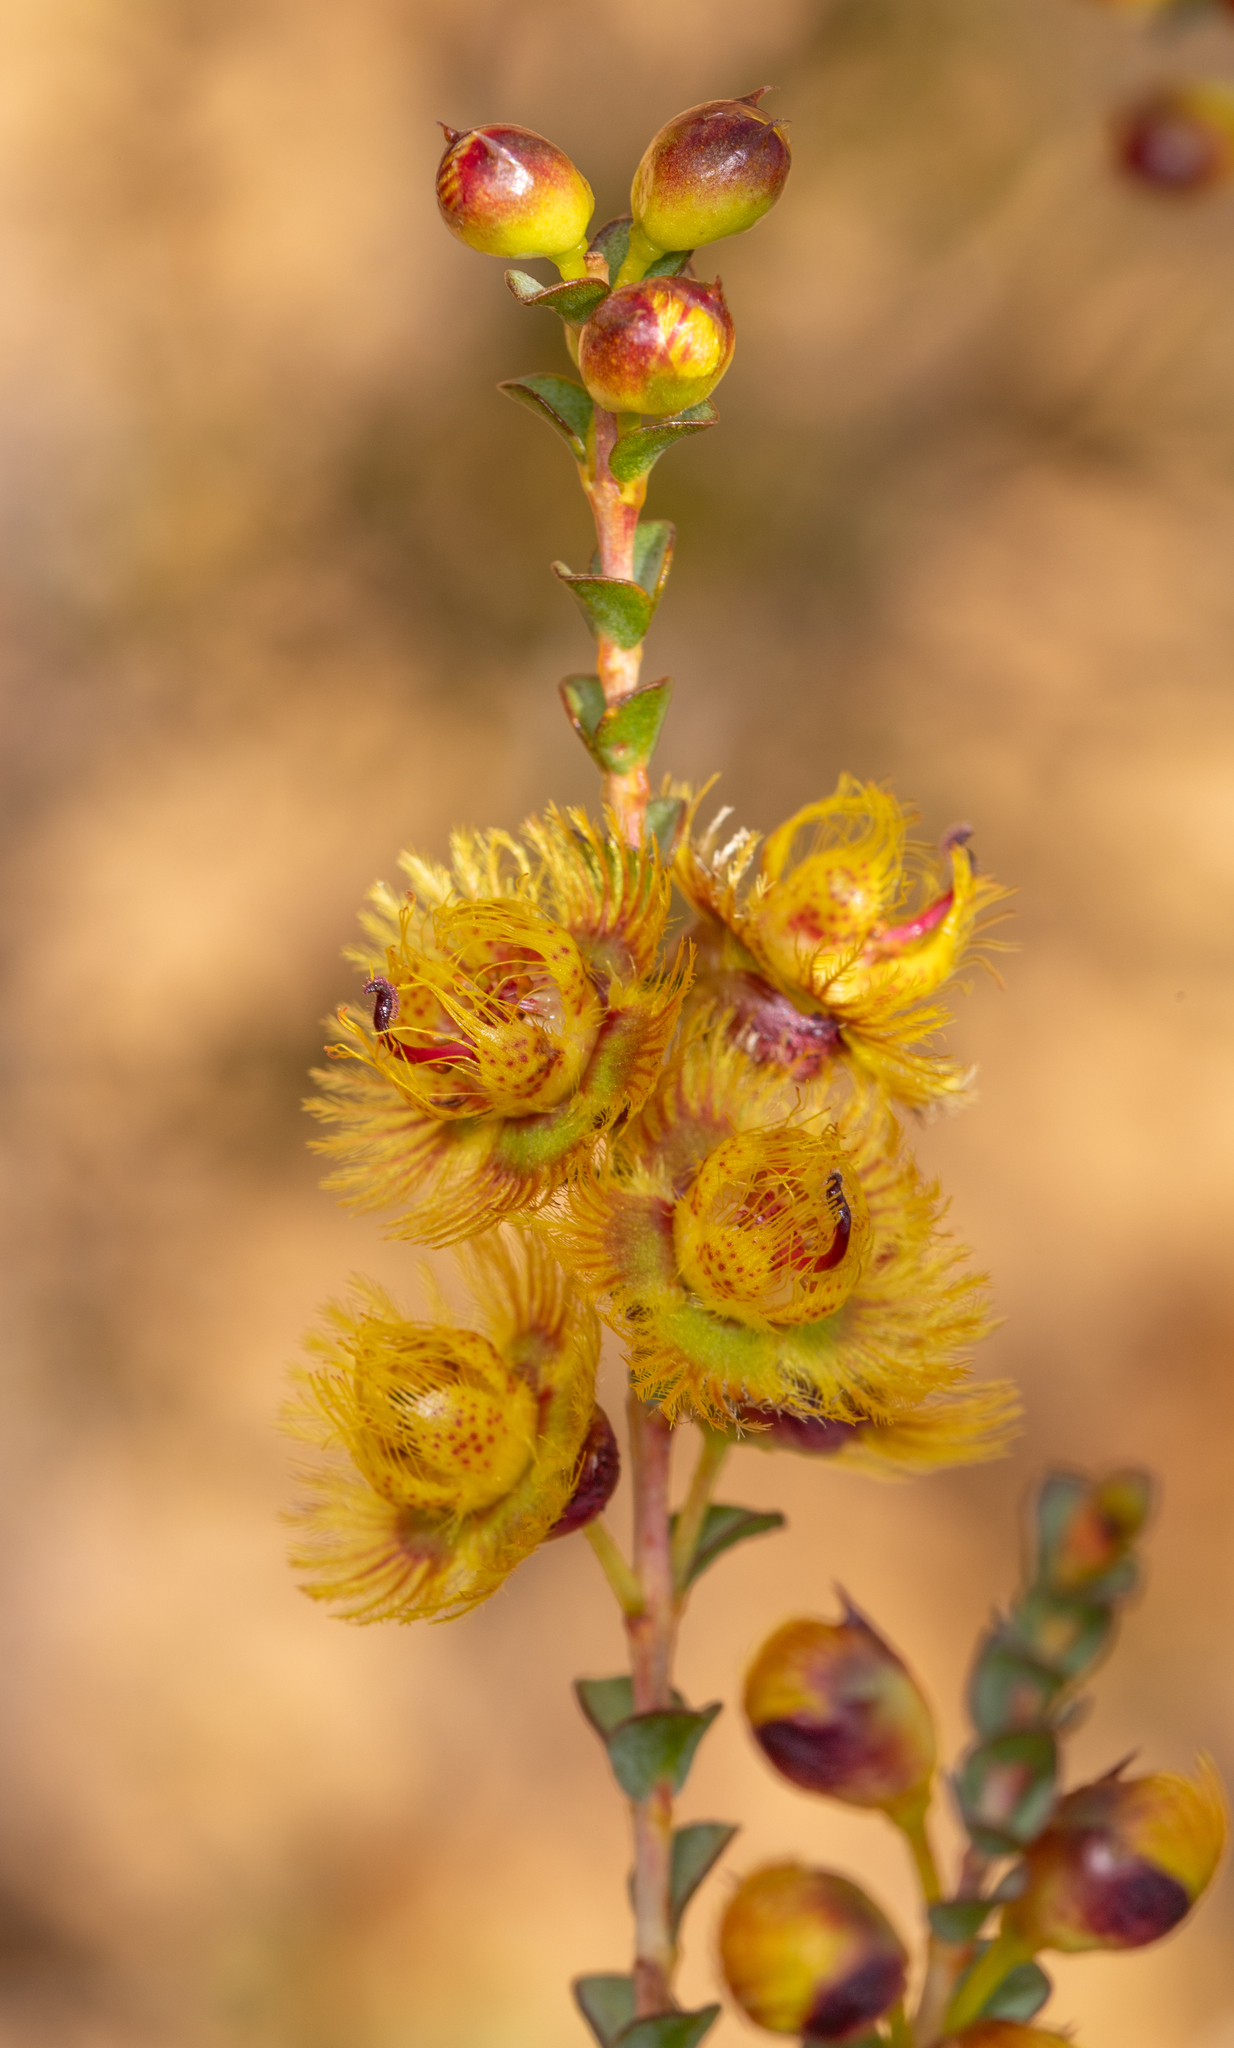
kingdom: Plantae
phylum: Tracheophyta
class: Magnoliopsida
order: Myrtales
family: Myrtaceae
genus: Verticordia
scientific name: Verticordia chrysostachys
